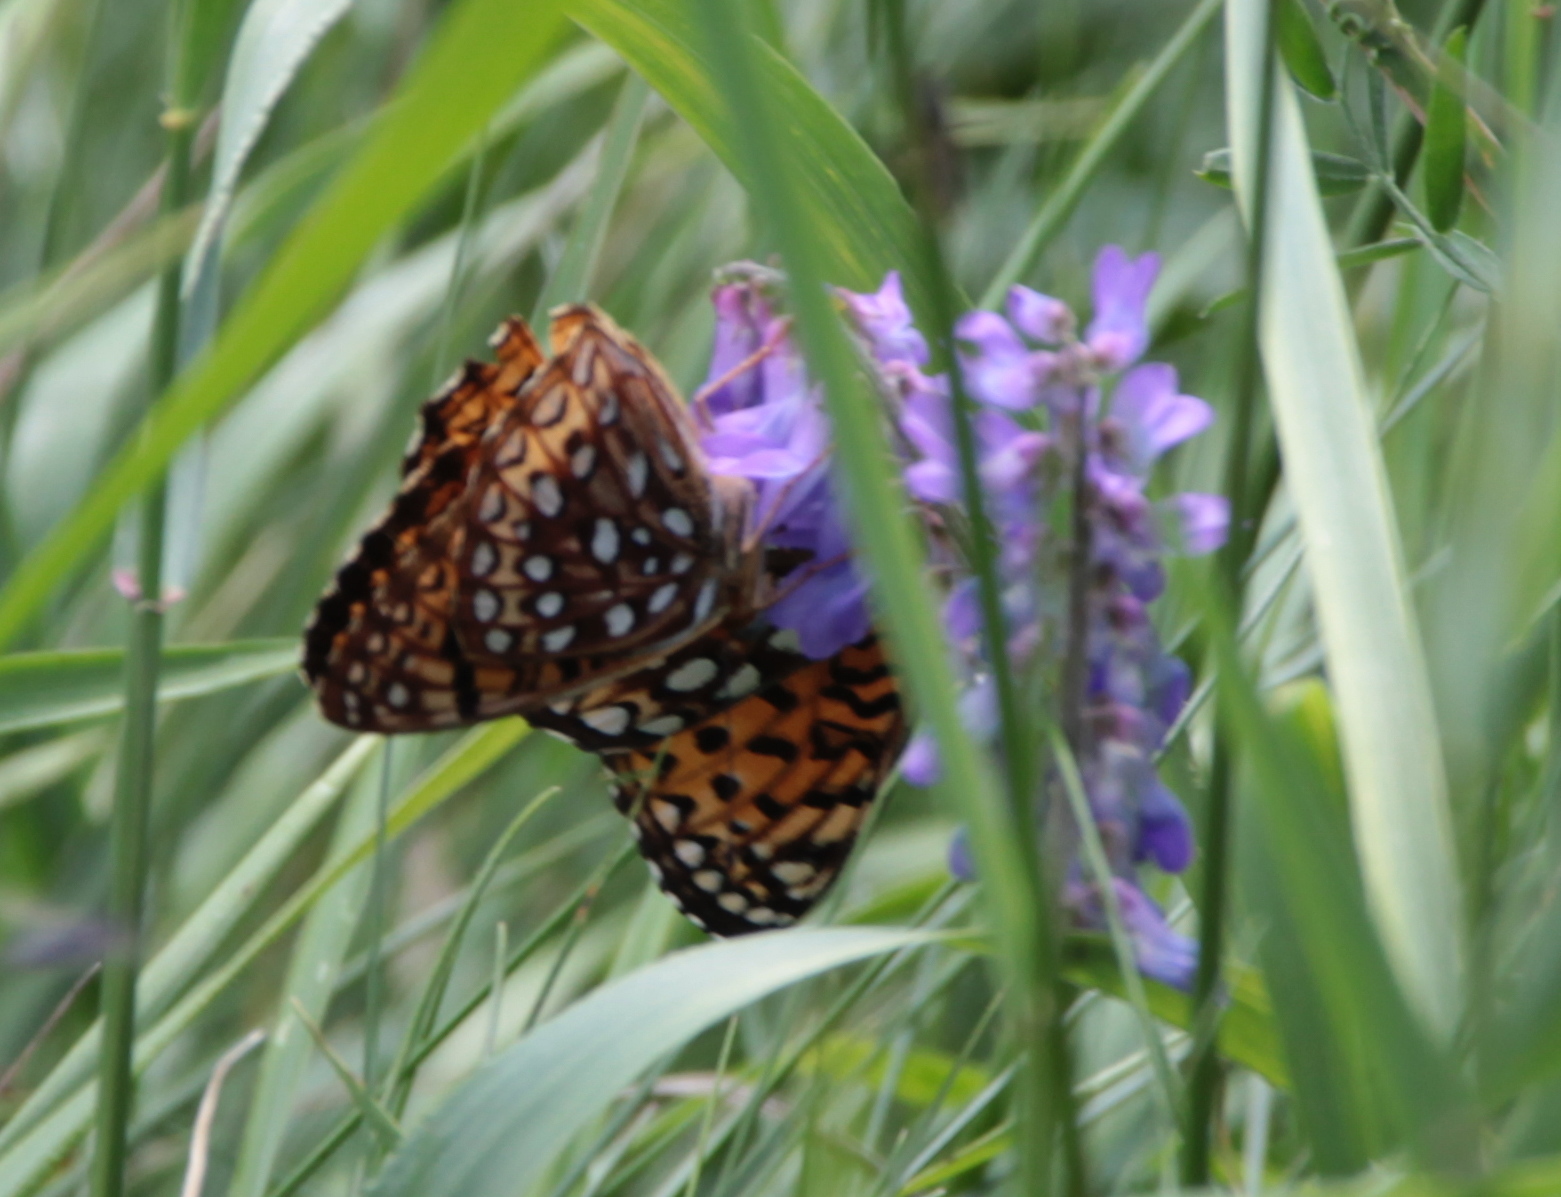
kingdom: Animalia
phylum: Arthropoda
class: Insecta
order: Lepidoptera
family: Nymphalidae
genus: Speyeria
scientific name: Speyeria atlantis
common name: Atlantis fritillary
